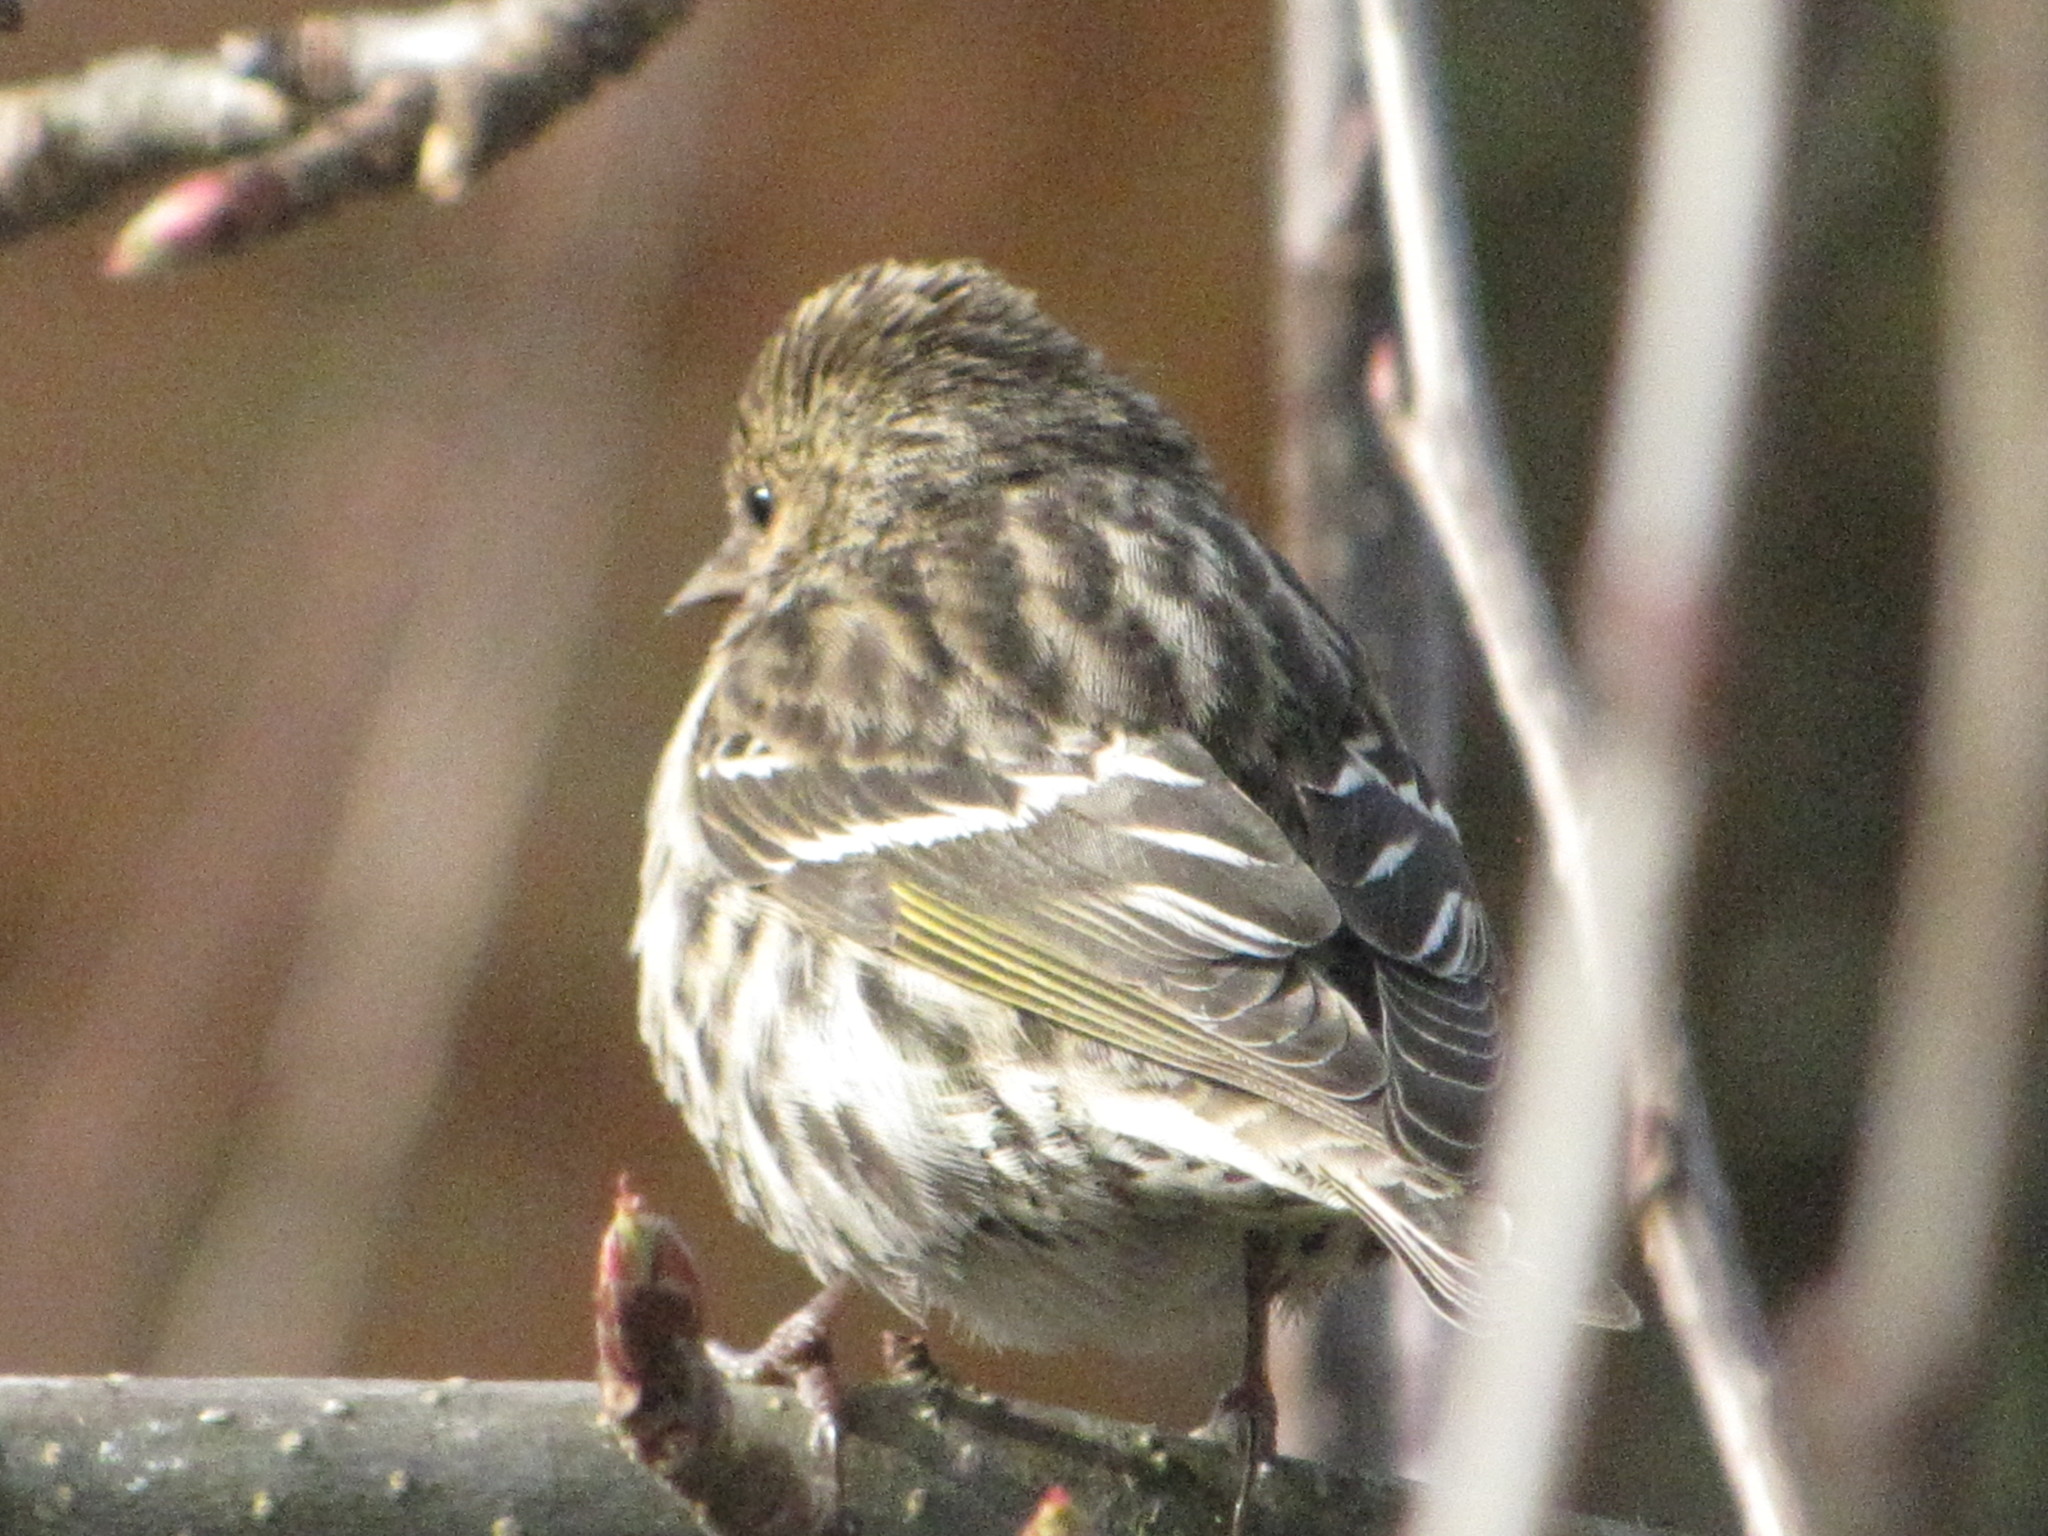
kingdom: Animalia
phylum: Chordata
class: Aves
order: Passeriformes
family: Fringillidae
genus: Spinus
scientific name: Spinus pinus
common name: Pine siskin
